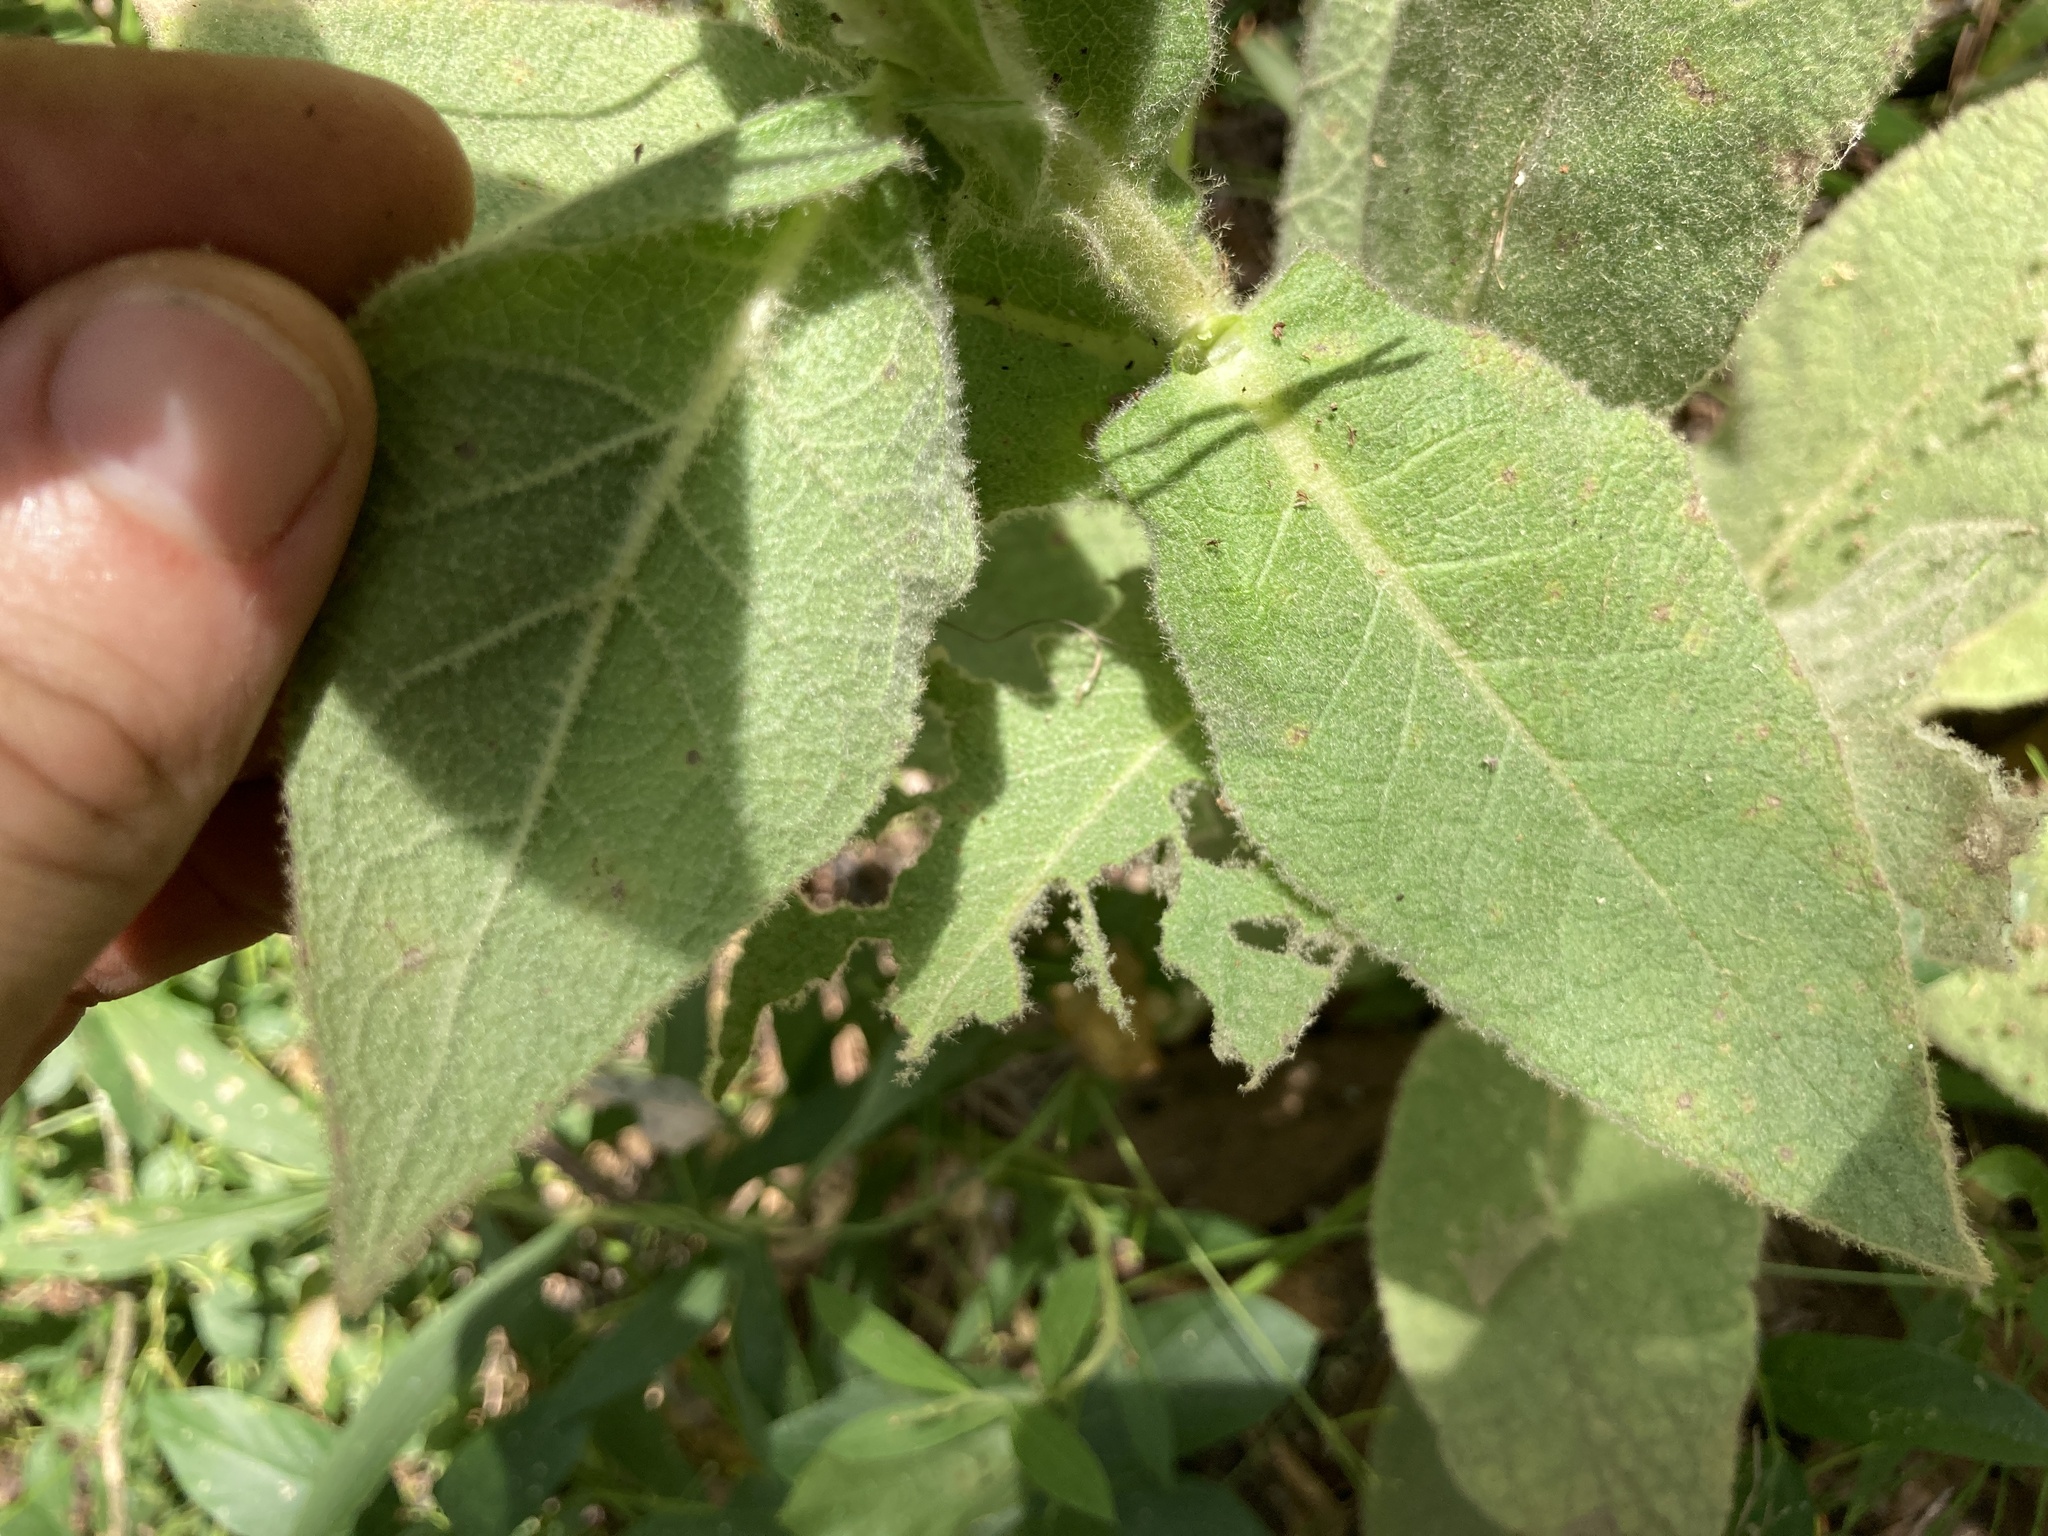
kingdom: Plantae
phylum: Tracheophyta
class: Magnoliopsida
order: Lamiales
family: Scrophulariaceae
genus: Verbascum
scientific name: Verbascum thapsus
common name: Common mullein
